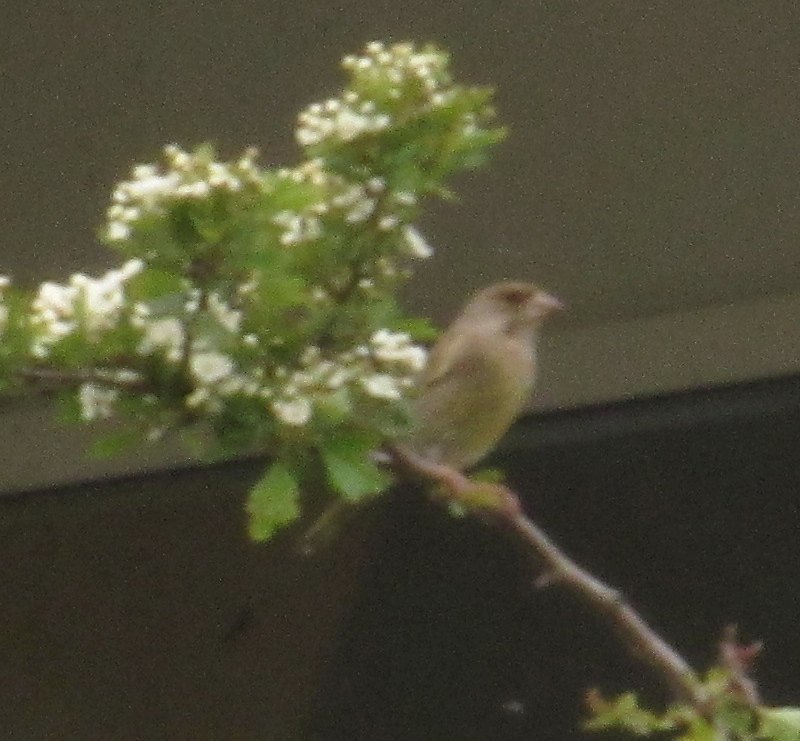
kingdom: Plantae
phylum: Tracheophyta
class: Liliopsida
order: Poales
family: Poaceae
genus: Chloris
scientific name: Chloris chloris
